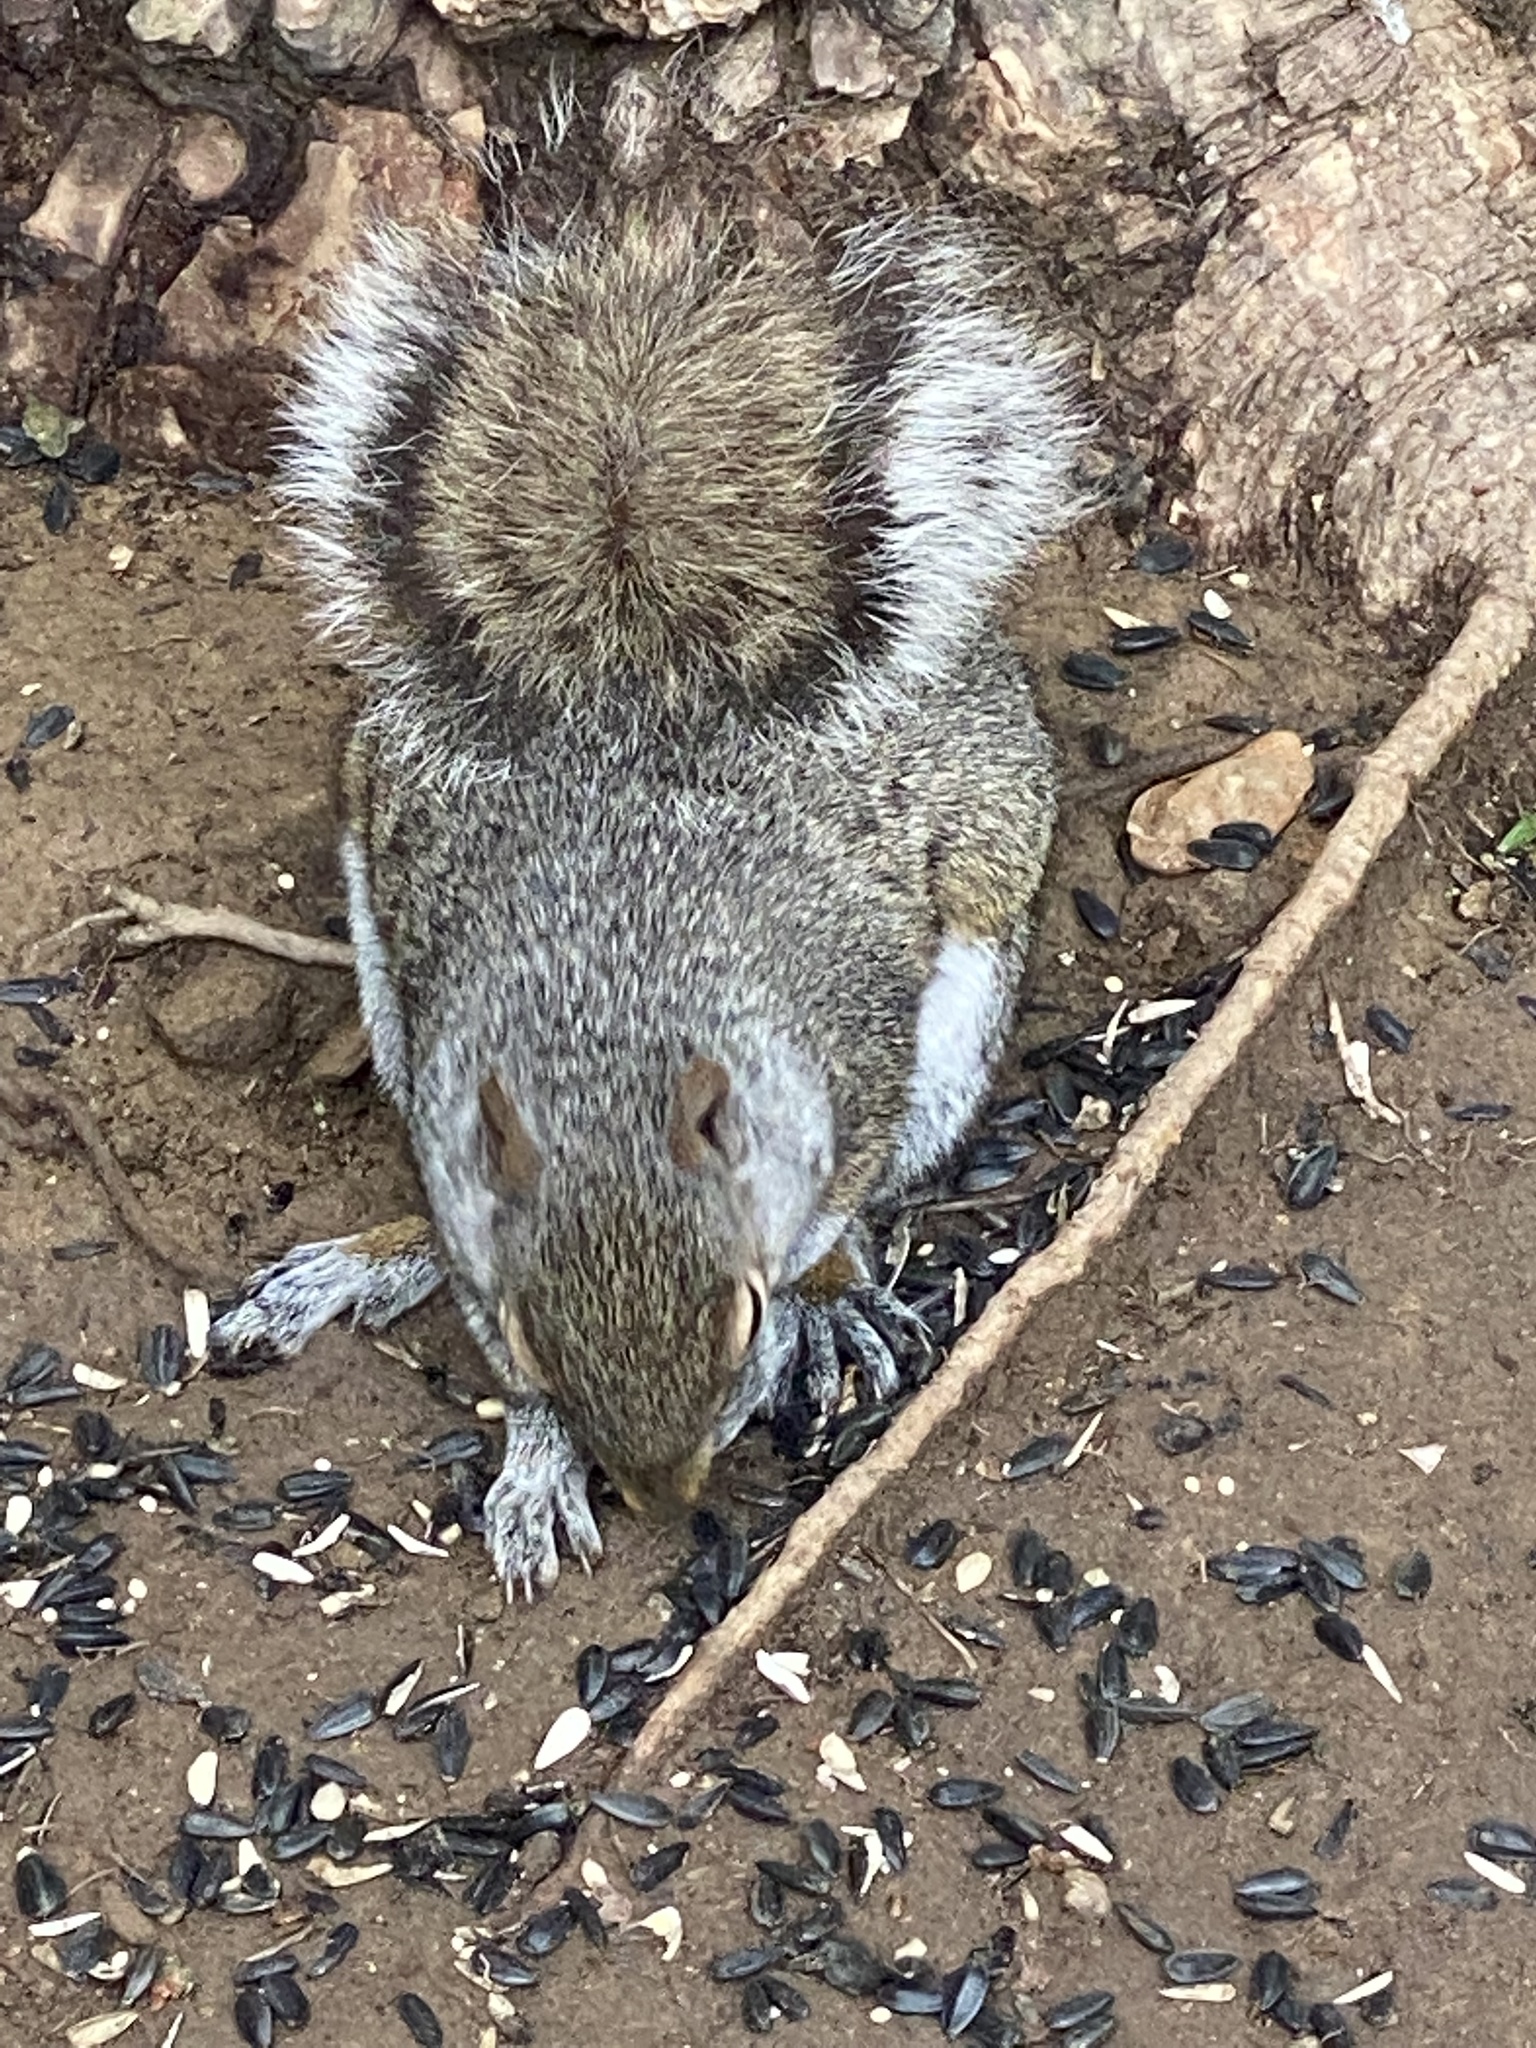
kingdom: Animalia
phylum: Chordata
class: Mammalia
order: Rodentia
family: Sciuridae
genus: Sciurus
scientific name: Sciurus carolinensis
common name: Eastern gray squirrel
